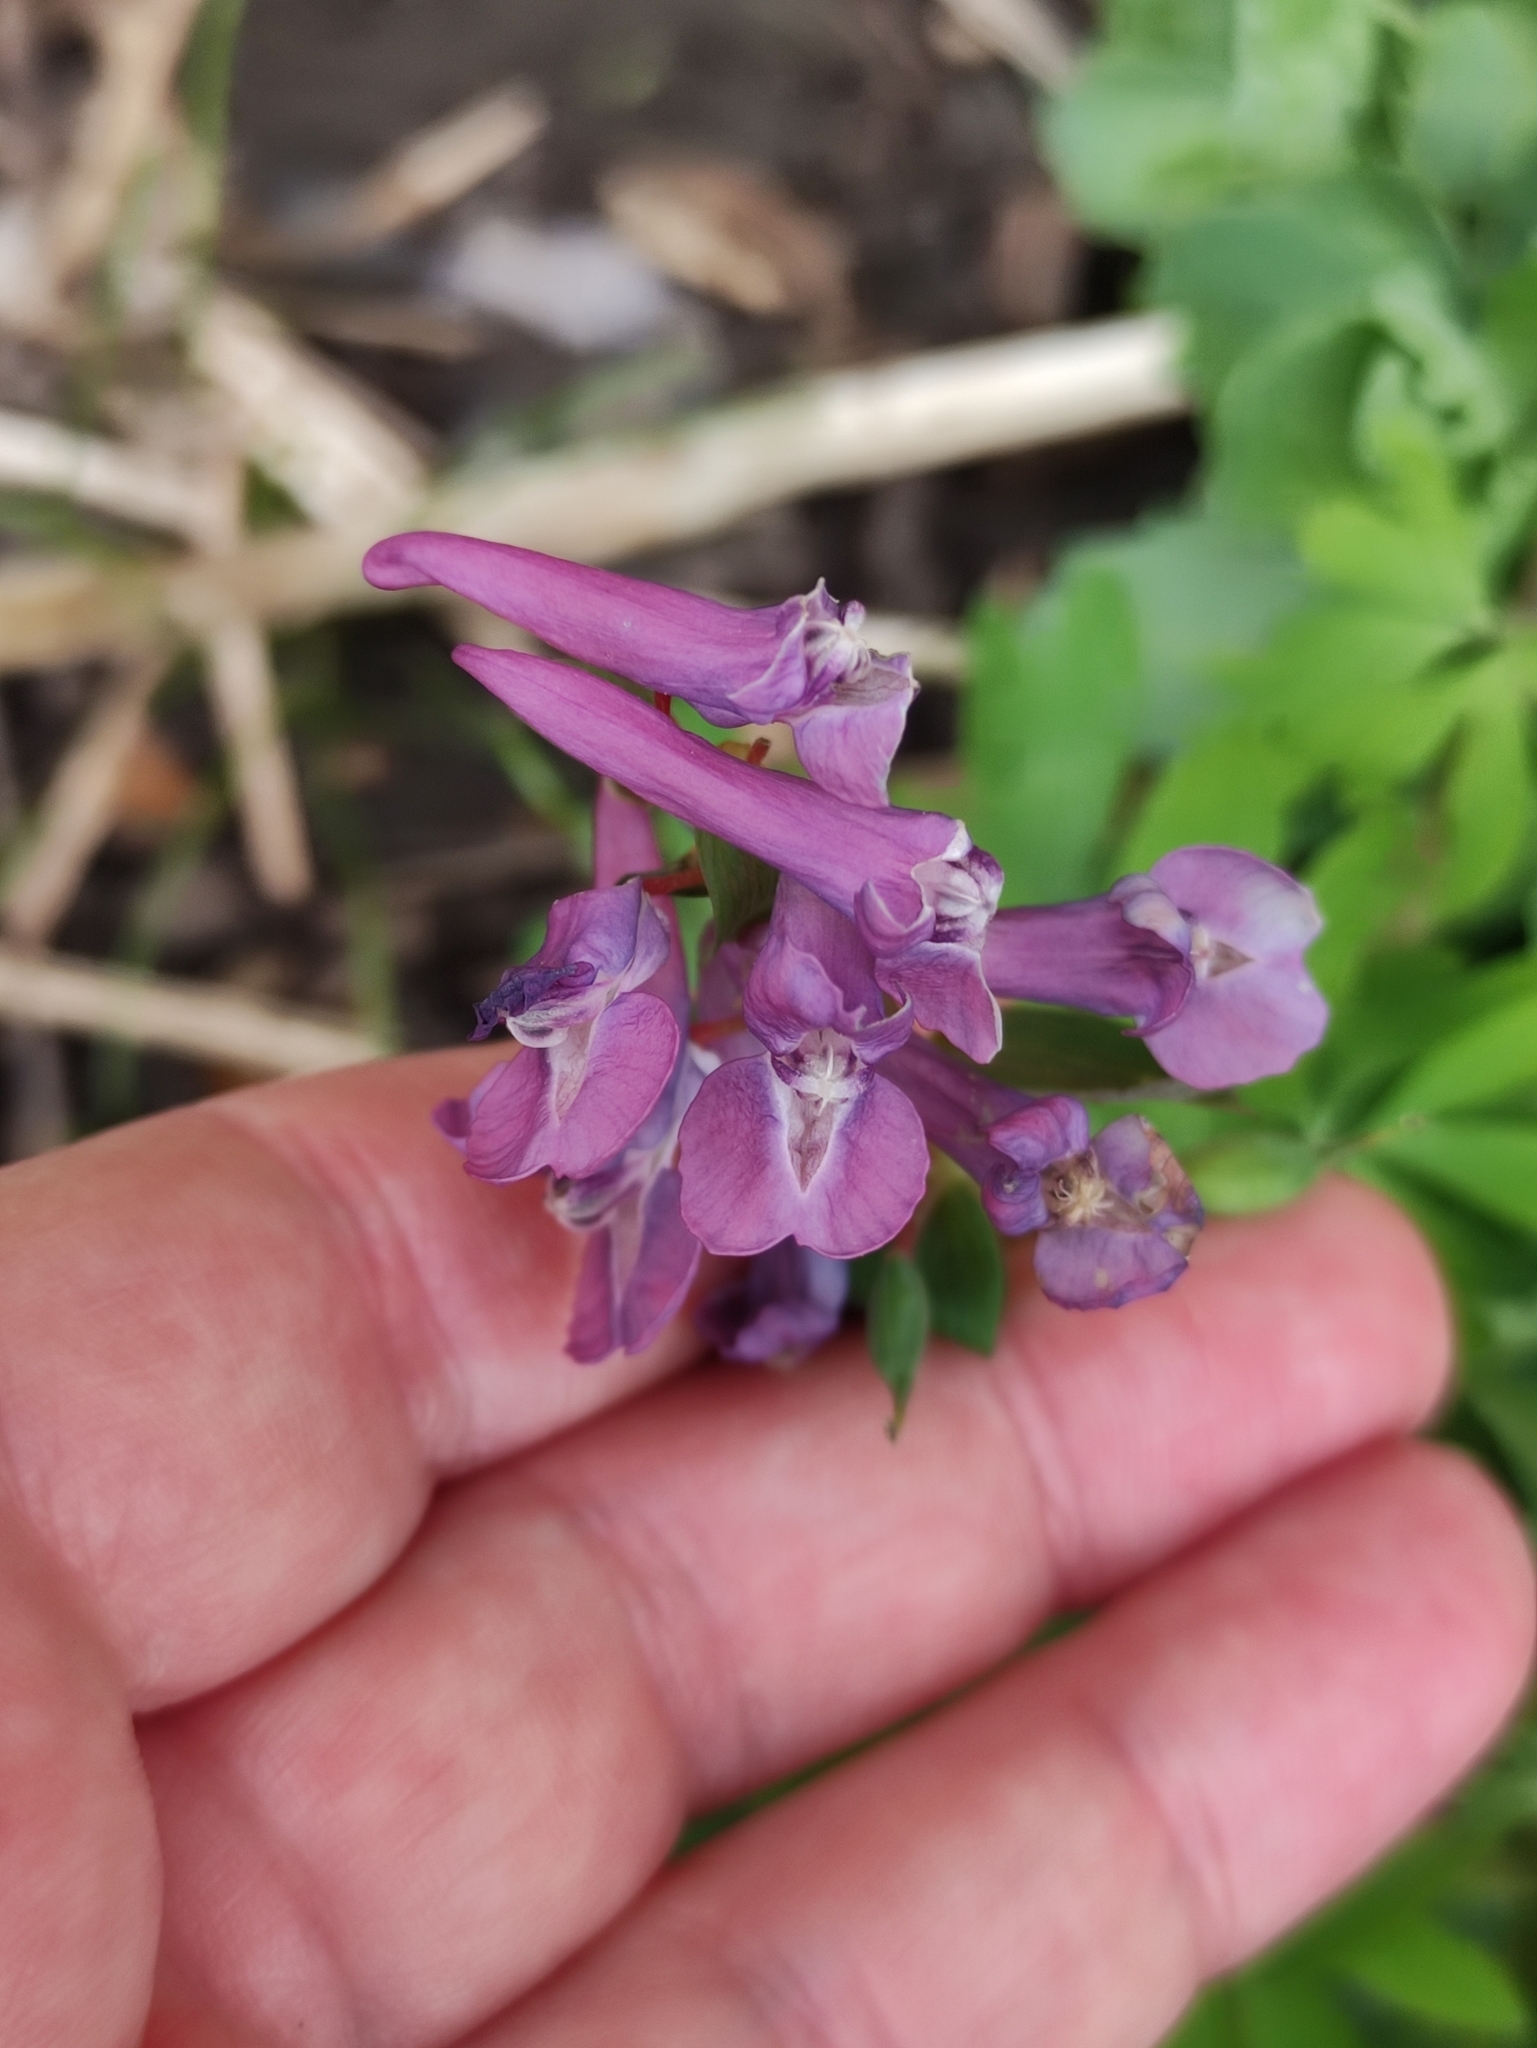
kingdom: Plantae
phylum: Tracheophyta
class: Magnoliopsida
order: Ranunculales
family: Papaveraceae
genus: Corydalis
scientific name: Corydalis solida
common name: Bird-in-a-bush
